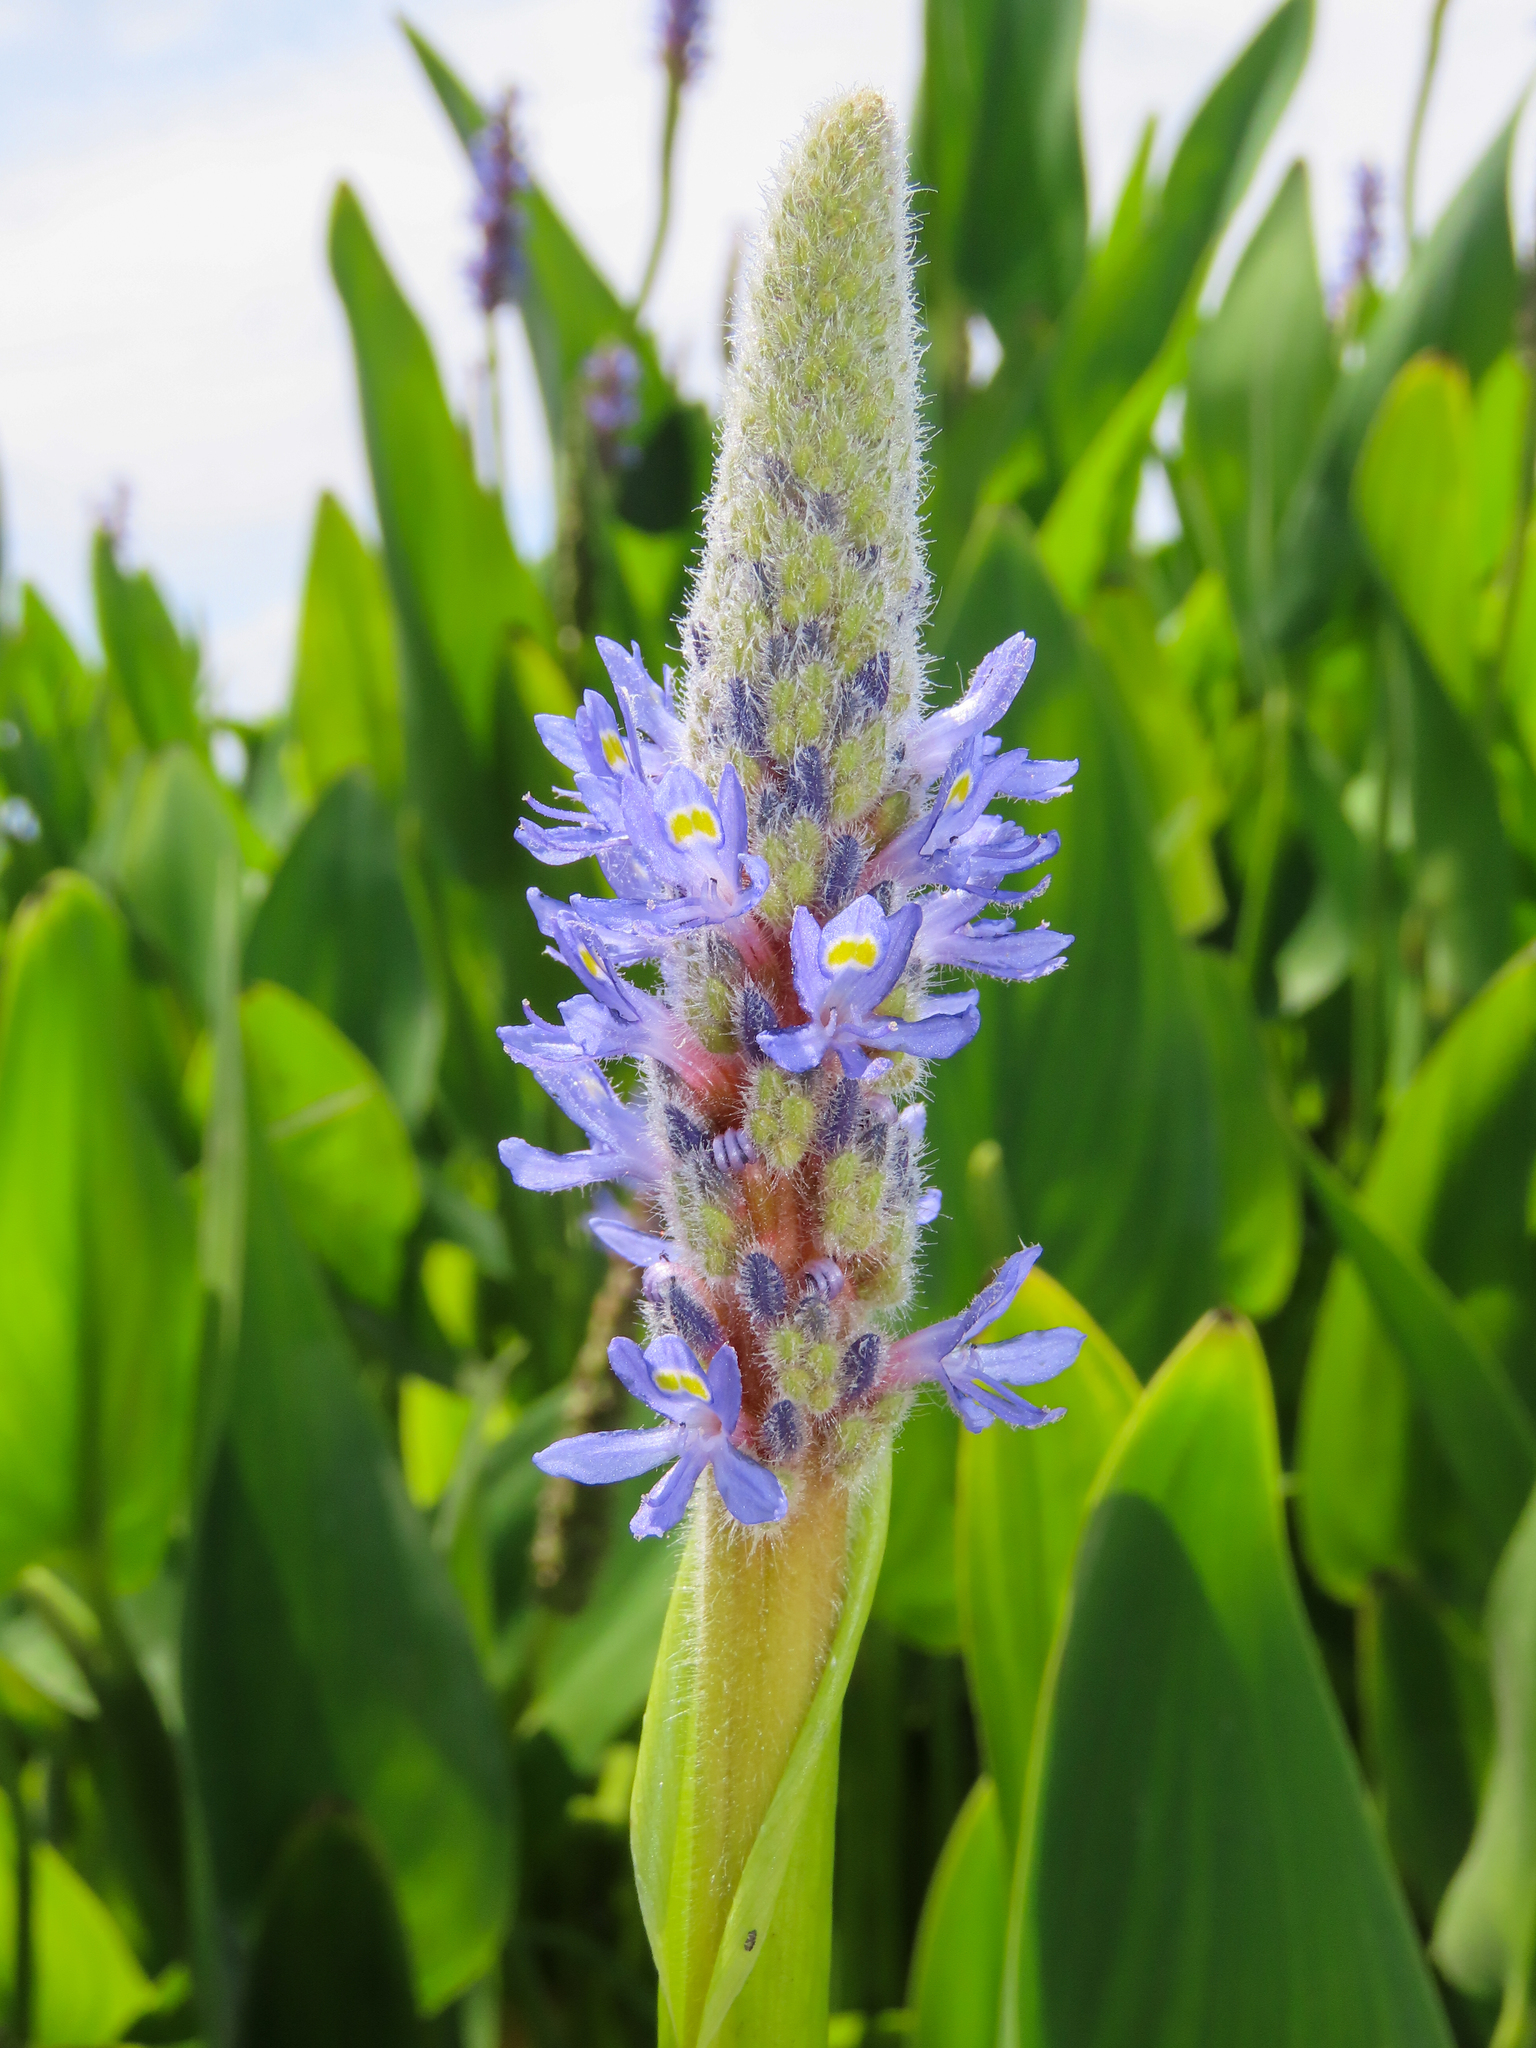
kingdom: Plantae
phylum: Tracheophyta
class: Liliopsida
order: Commelinales
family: Pontederiaceae
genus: Pontederia
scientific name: Pontederia cordata
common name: Pickerelweed
